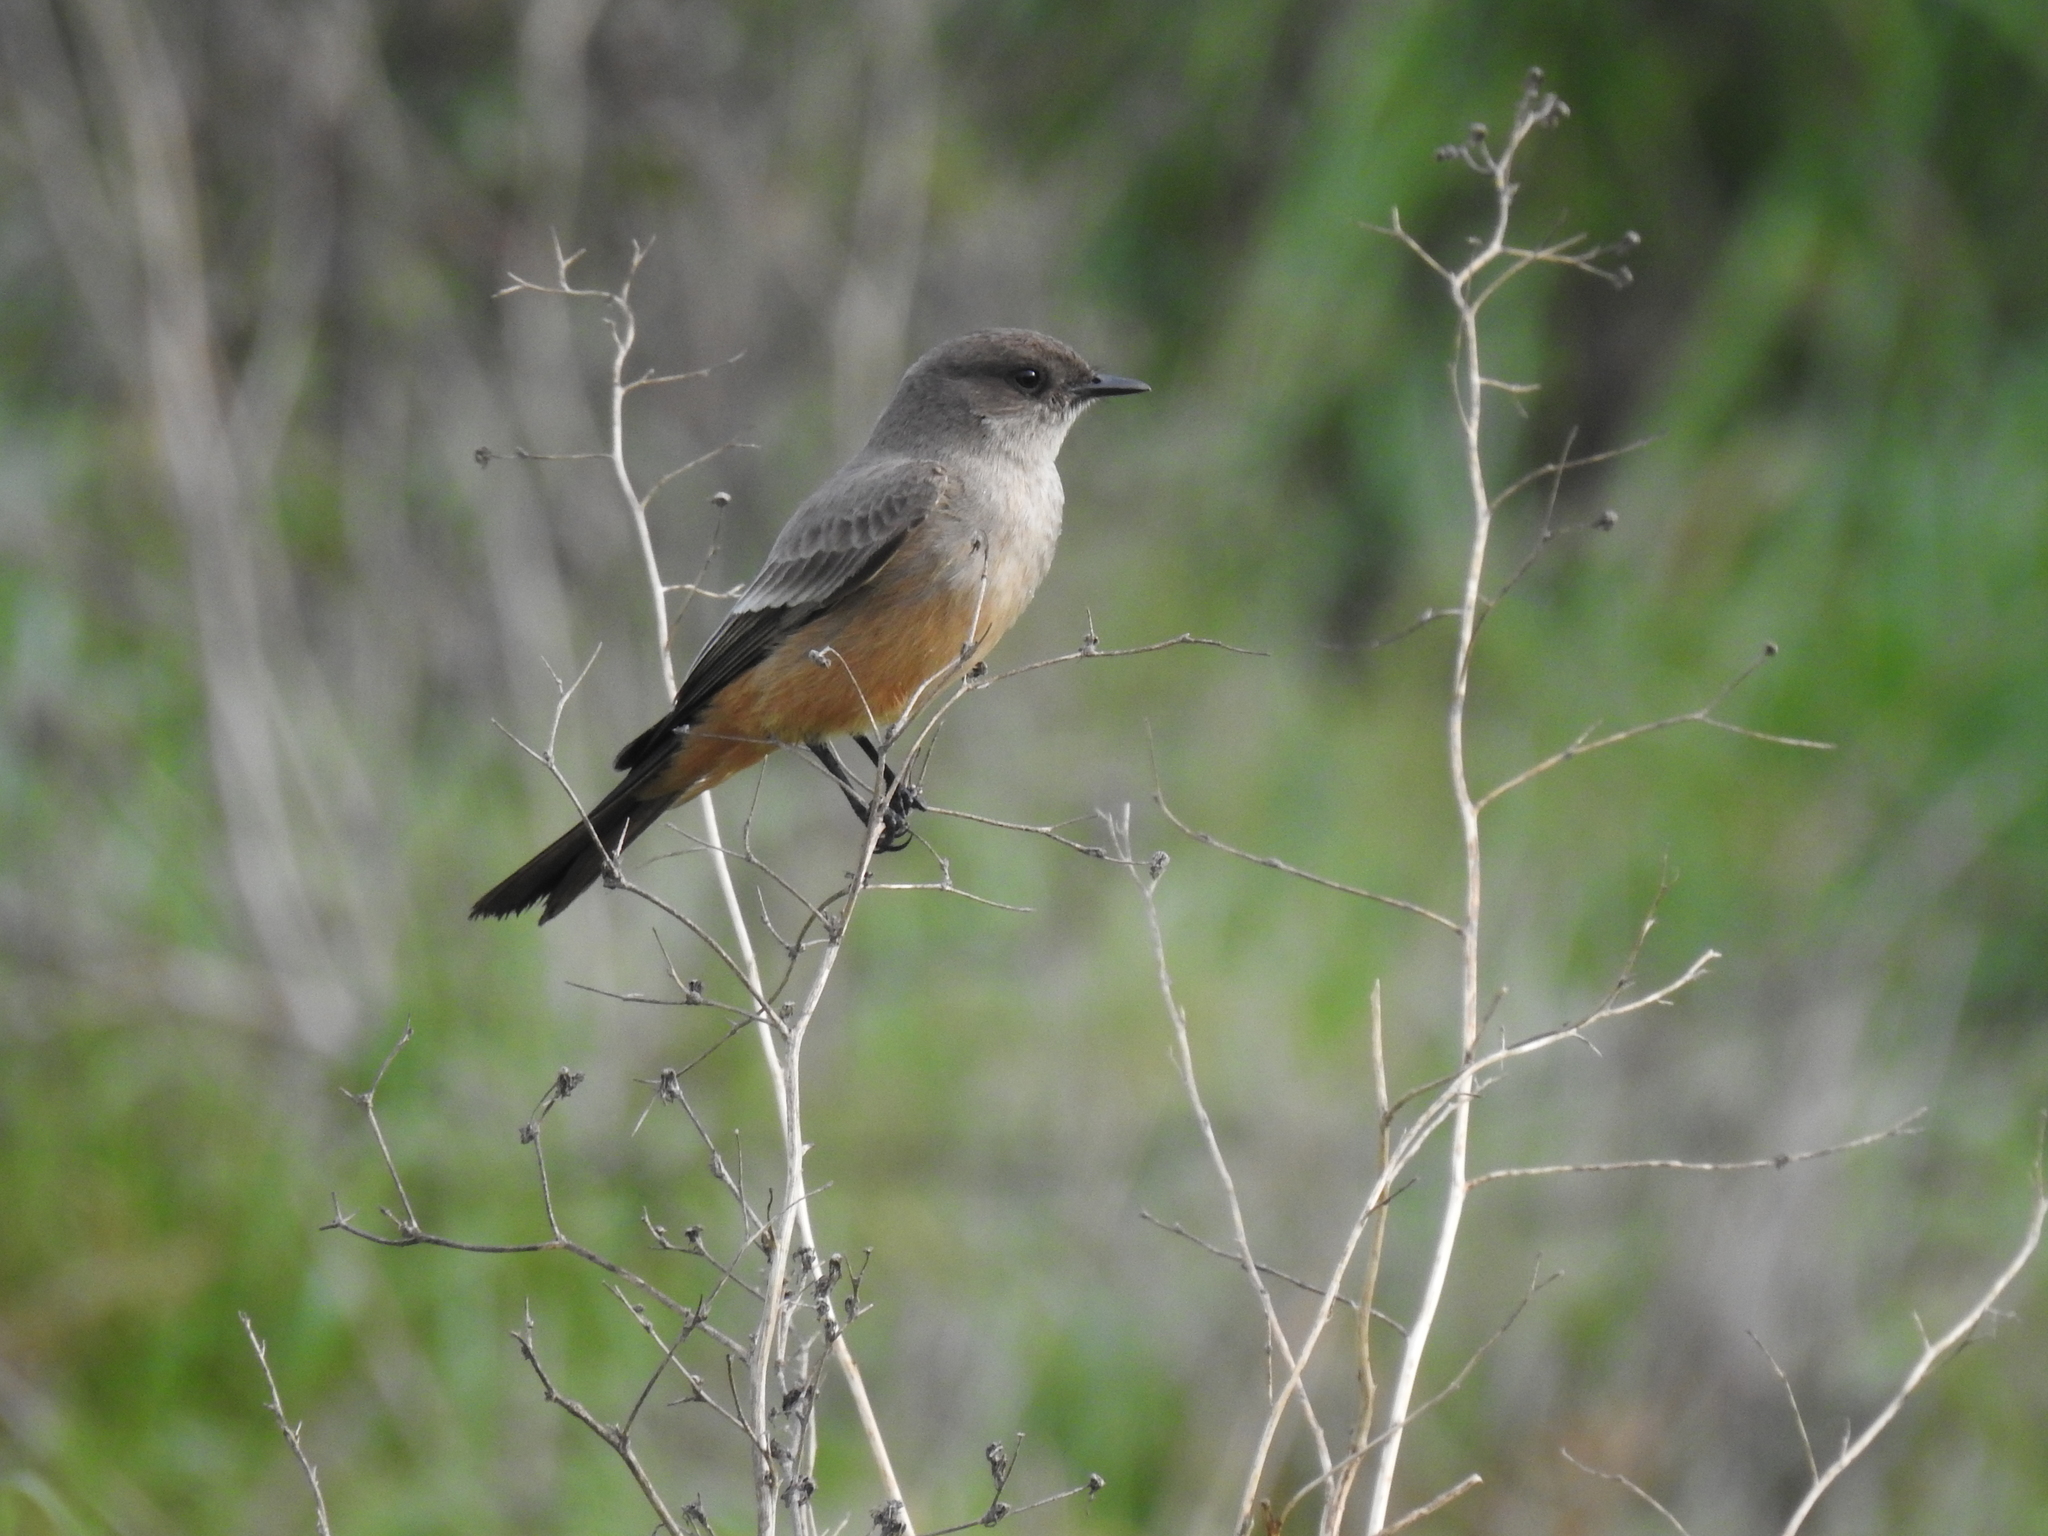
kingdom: Animalia
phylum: Chordata
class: Aves
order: Passeriformes
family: Tyrannidae
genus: Sayornis
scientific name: Sayornis saya
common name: Say's phoebe
